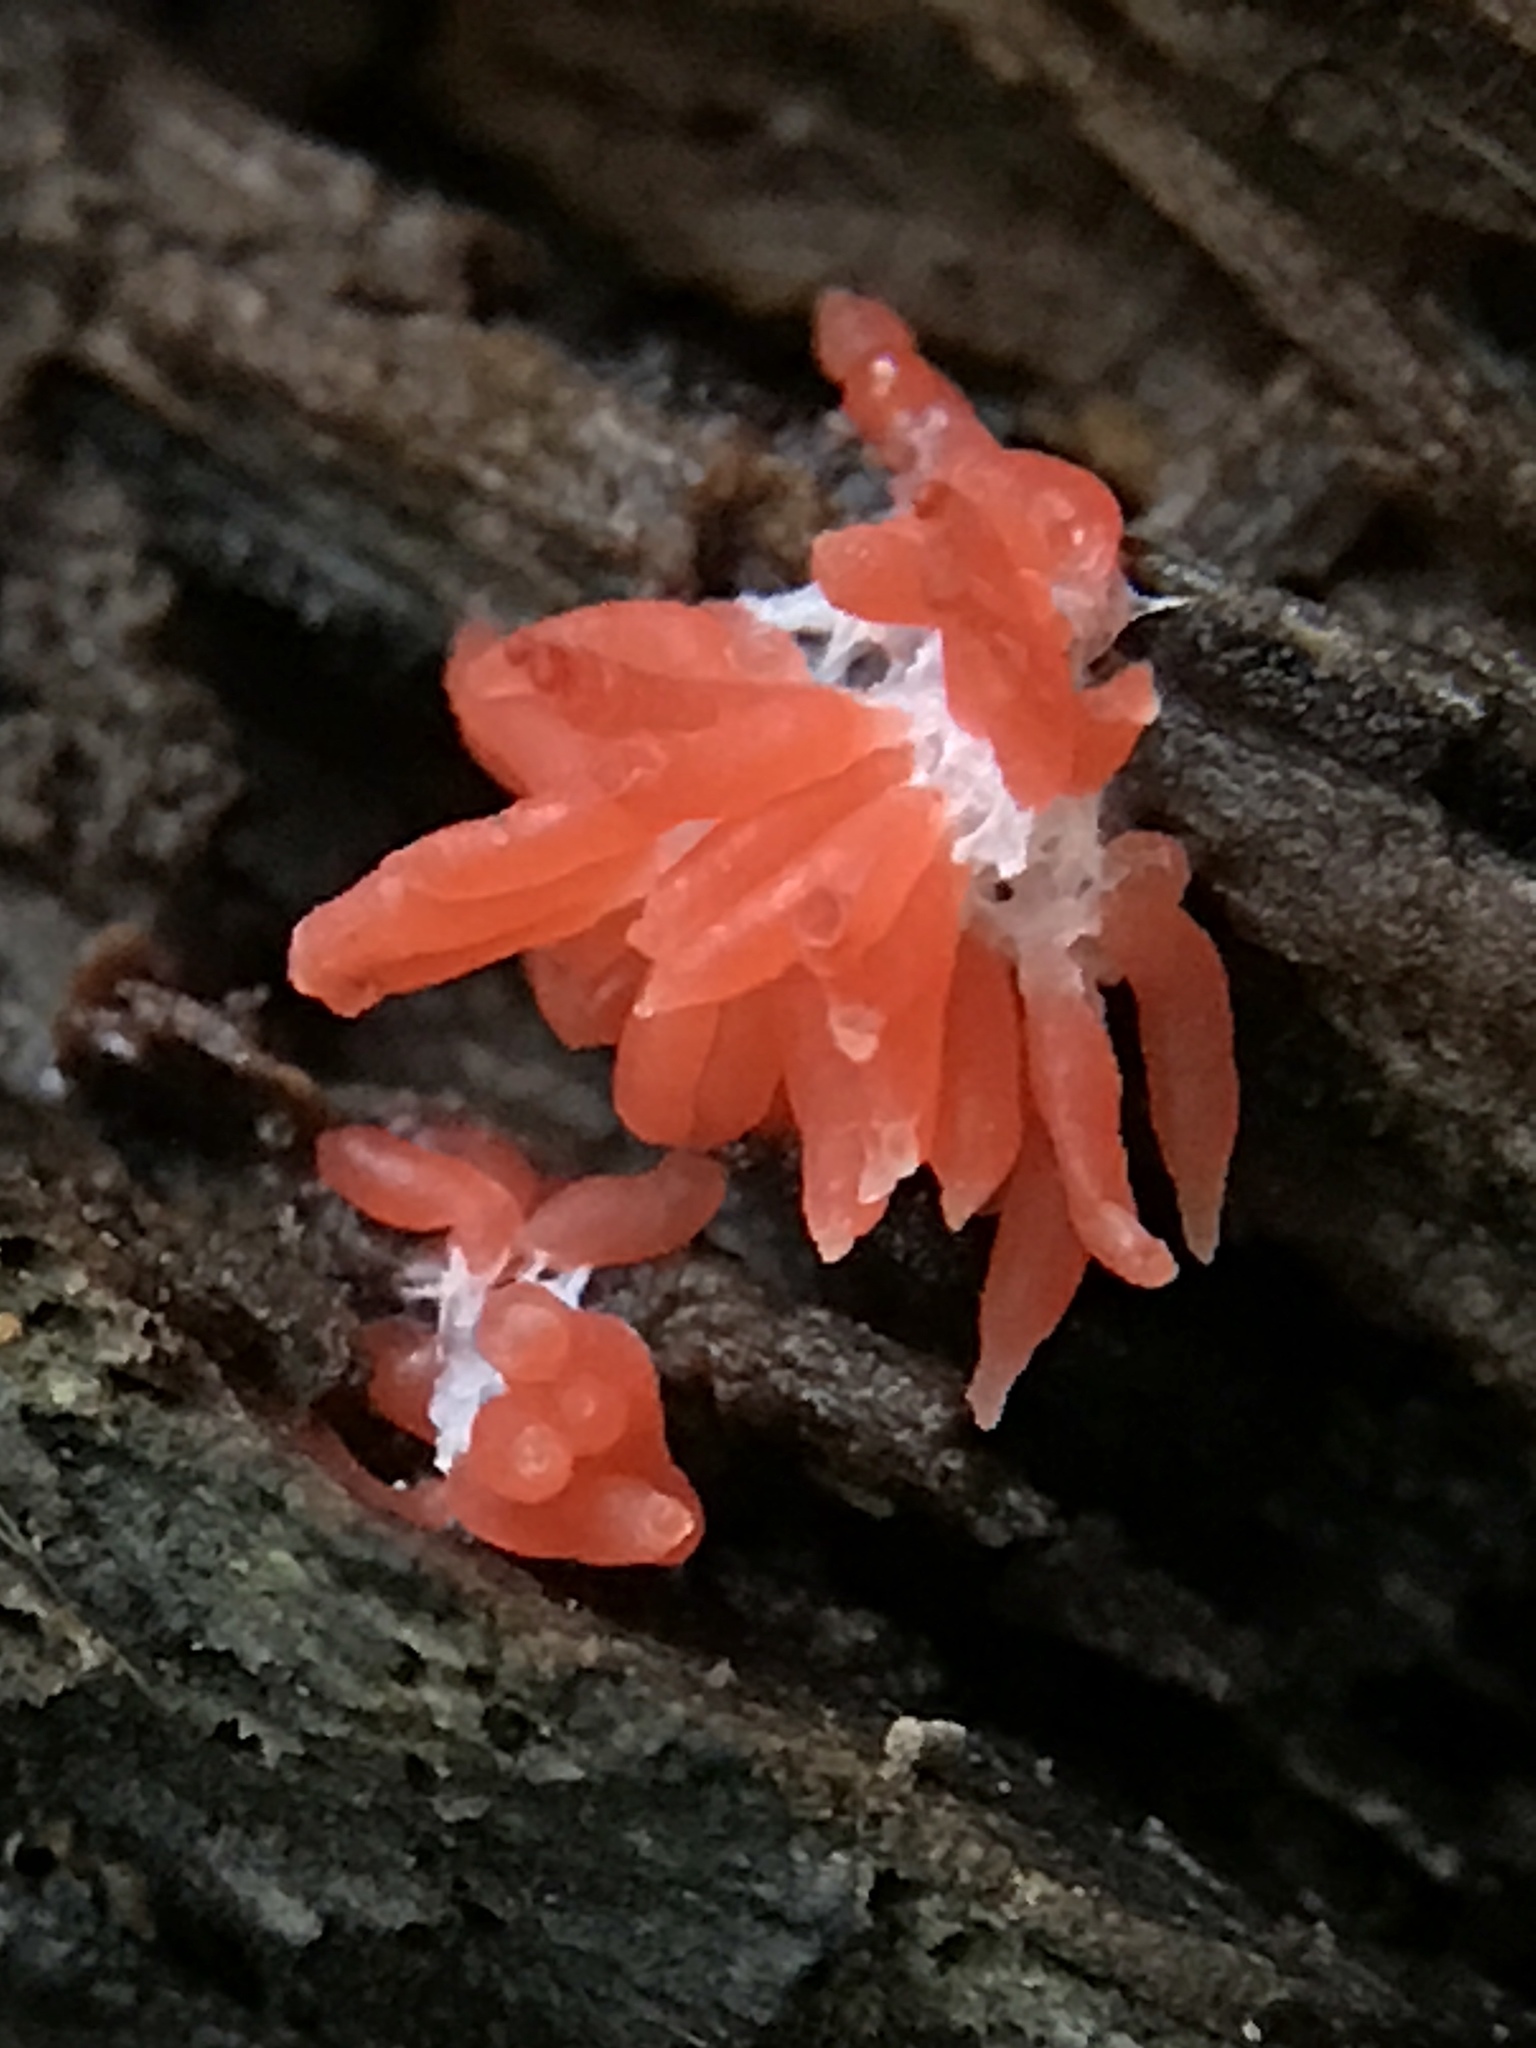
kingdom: Protozoa
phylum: Mycetozoa
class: Myxomycetes
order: Cribrariales
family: Tubiferaceae
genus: Tubifera
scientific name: Tubifera ferruginosa
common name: Red raspberry slime mold
